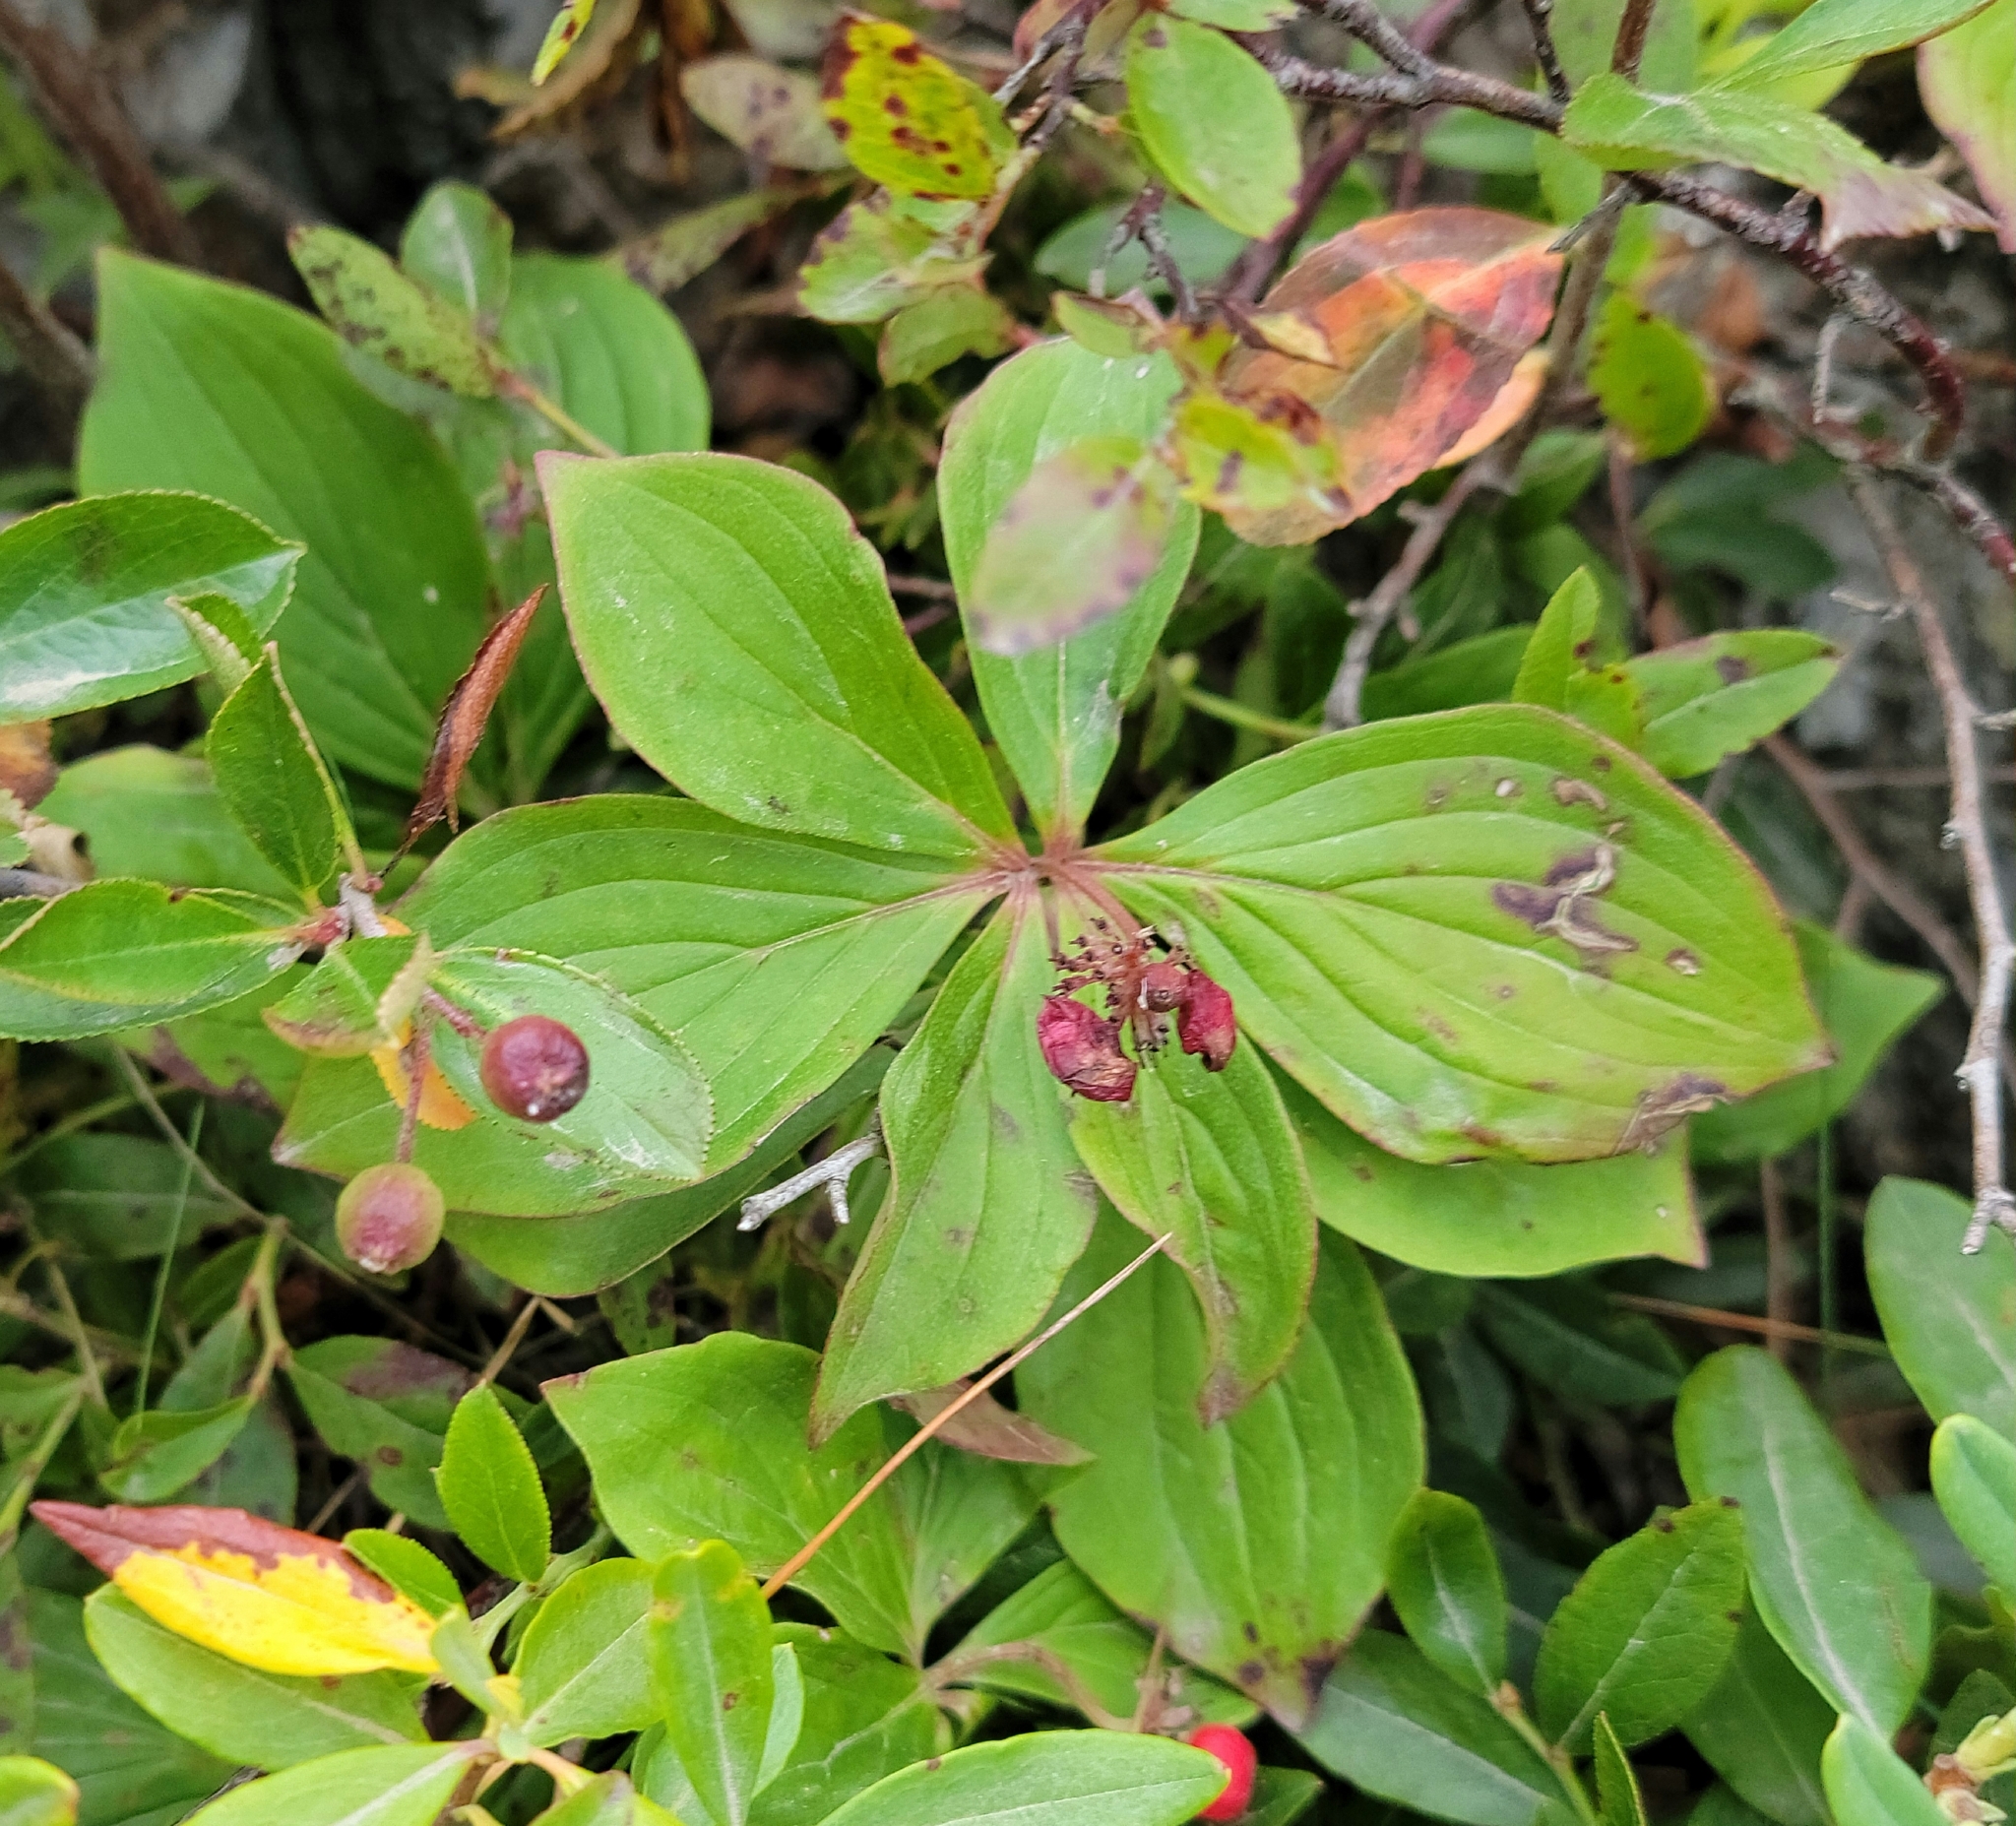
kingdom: Plantae
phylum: Tracheophyta
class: Magnoliopsida
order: Cornales
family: Cornaceae
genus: Cornus
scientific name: Cornus canadensis
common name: Creeping dogwood
